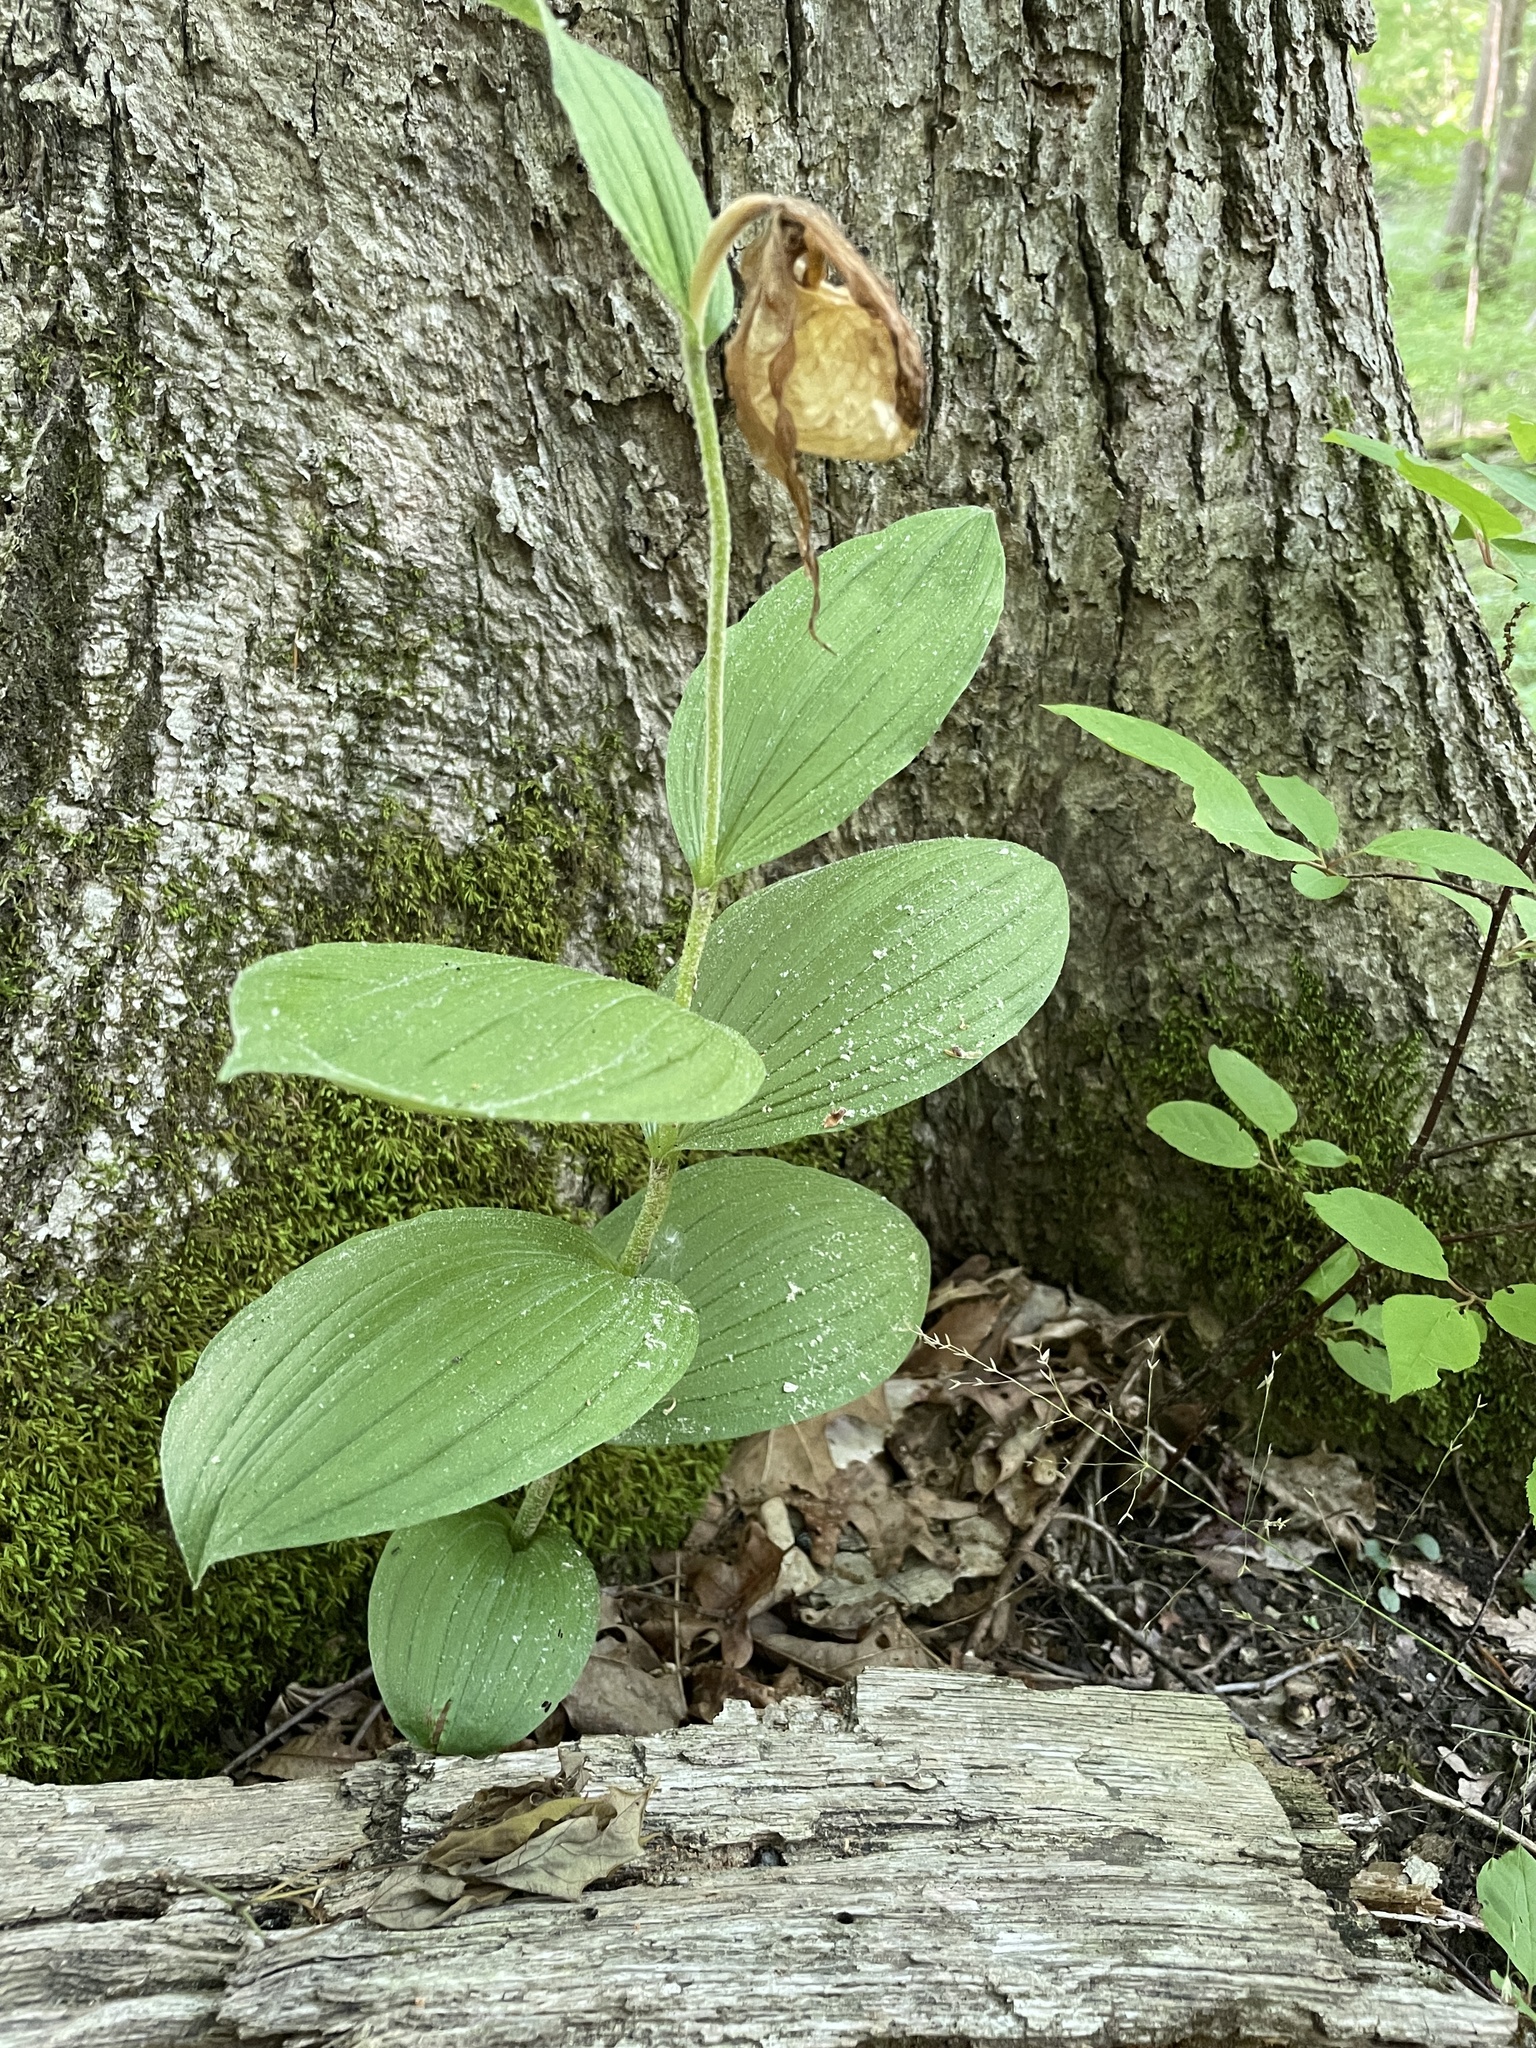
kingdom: Plantae
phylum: Tracheophyta
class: Liliopsida
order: Asparagales
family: Orchidaceae
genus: Cypripedium
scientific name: Cypripedium parviflorum
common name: American yellow lady's-slipper
